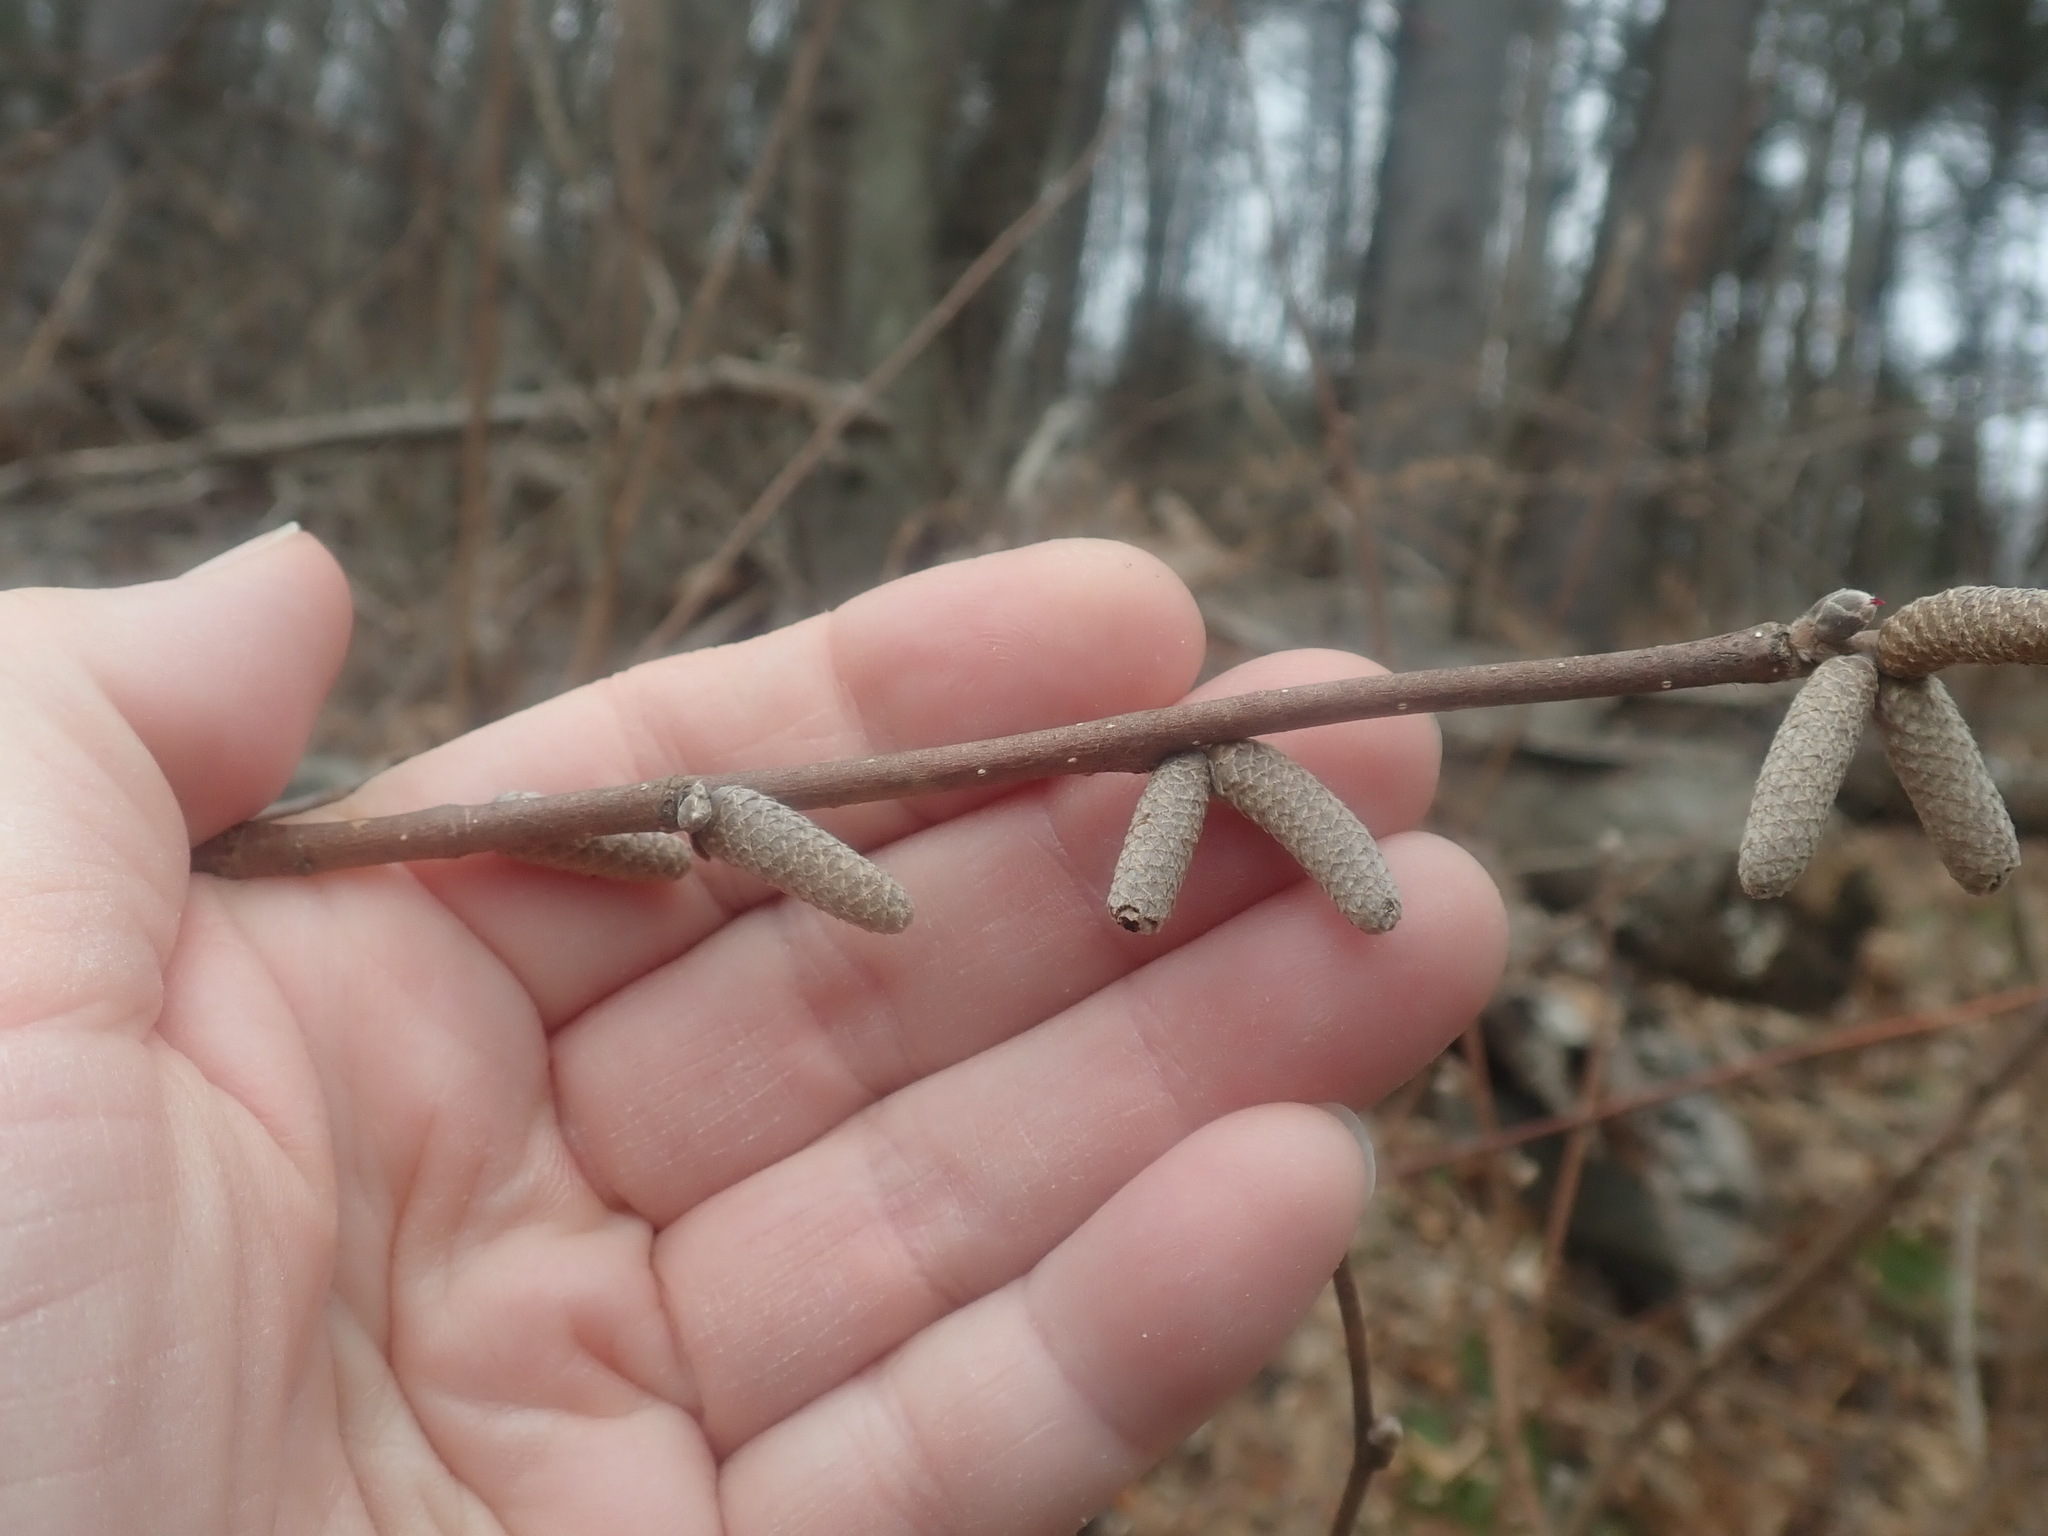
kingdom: Plantae
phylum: Tracheophyta
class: Magnoliopsida
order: Fagales
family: Betulaceae
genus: Corylus
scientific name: Corylus cornuta
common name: Beaked hazel
